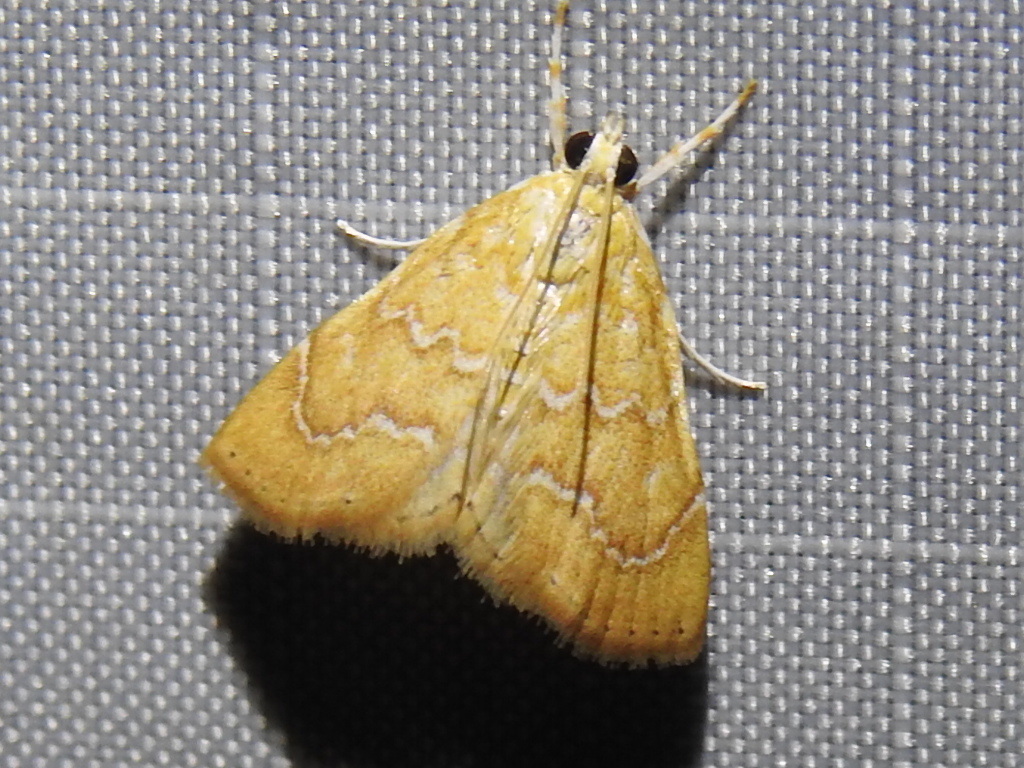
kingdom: Animalia
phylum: Arthropoda
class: Insecta
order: Lepidoptera
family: Crambidae
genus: Glaphyria
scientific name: Glaphyria sesquistrialis
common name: White-roped glaphyria
